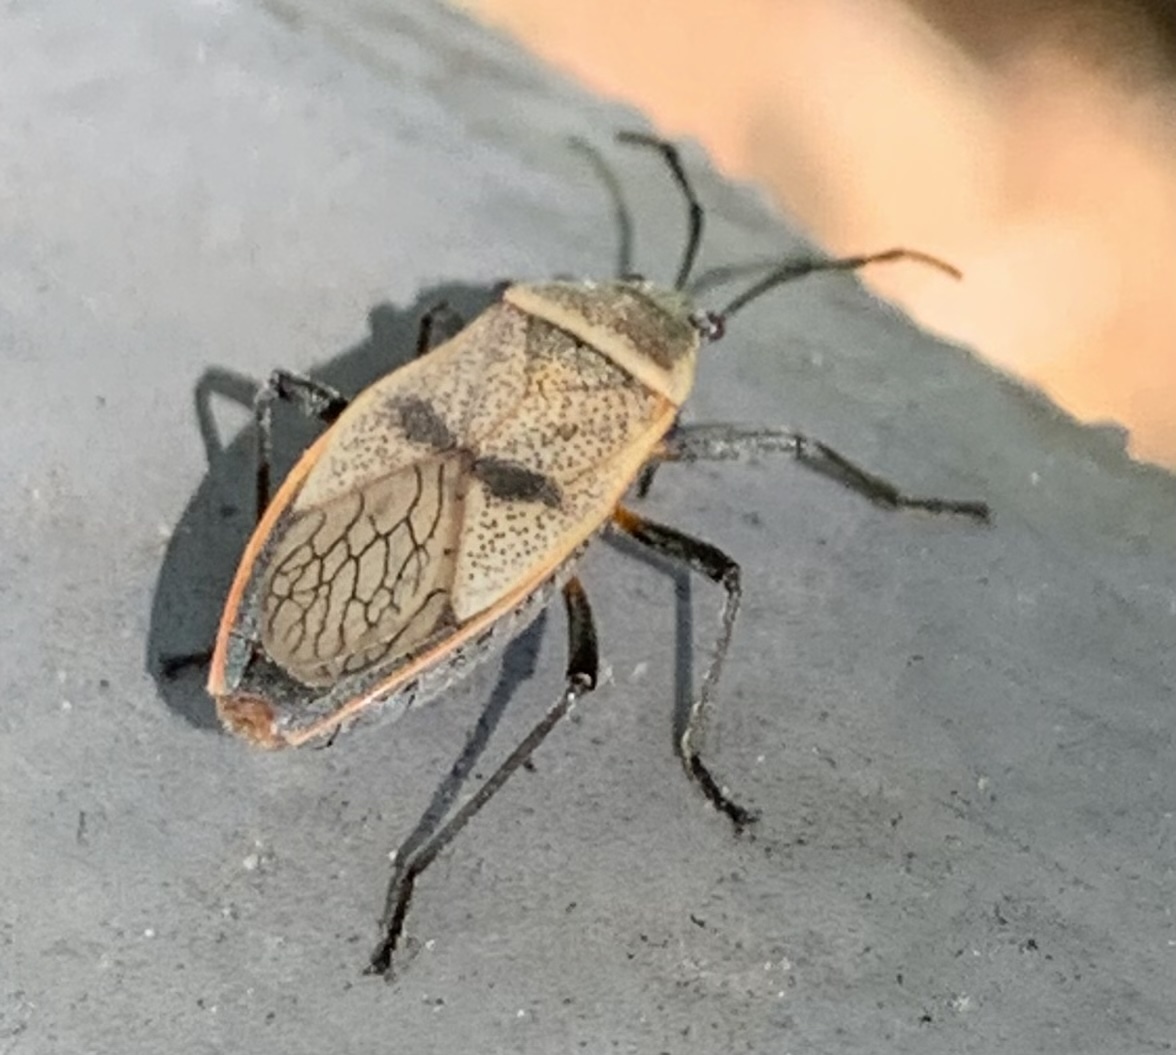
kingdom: Animalia
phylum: Arthropoda
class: Insecta
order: Hemiptera
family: Largidae
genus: Largus
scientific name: Largus maculatus
